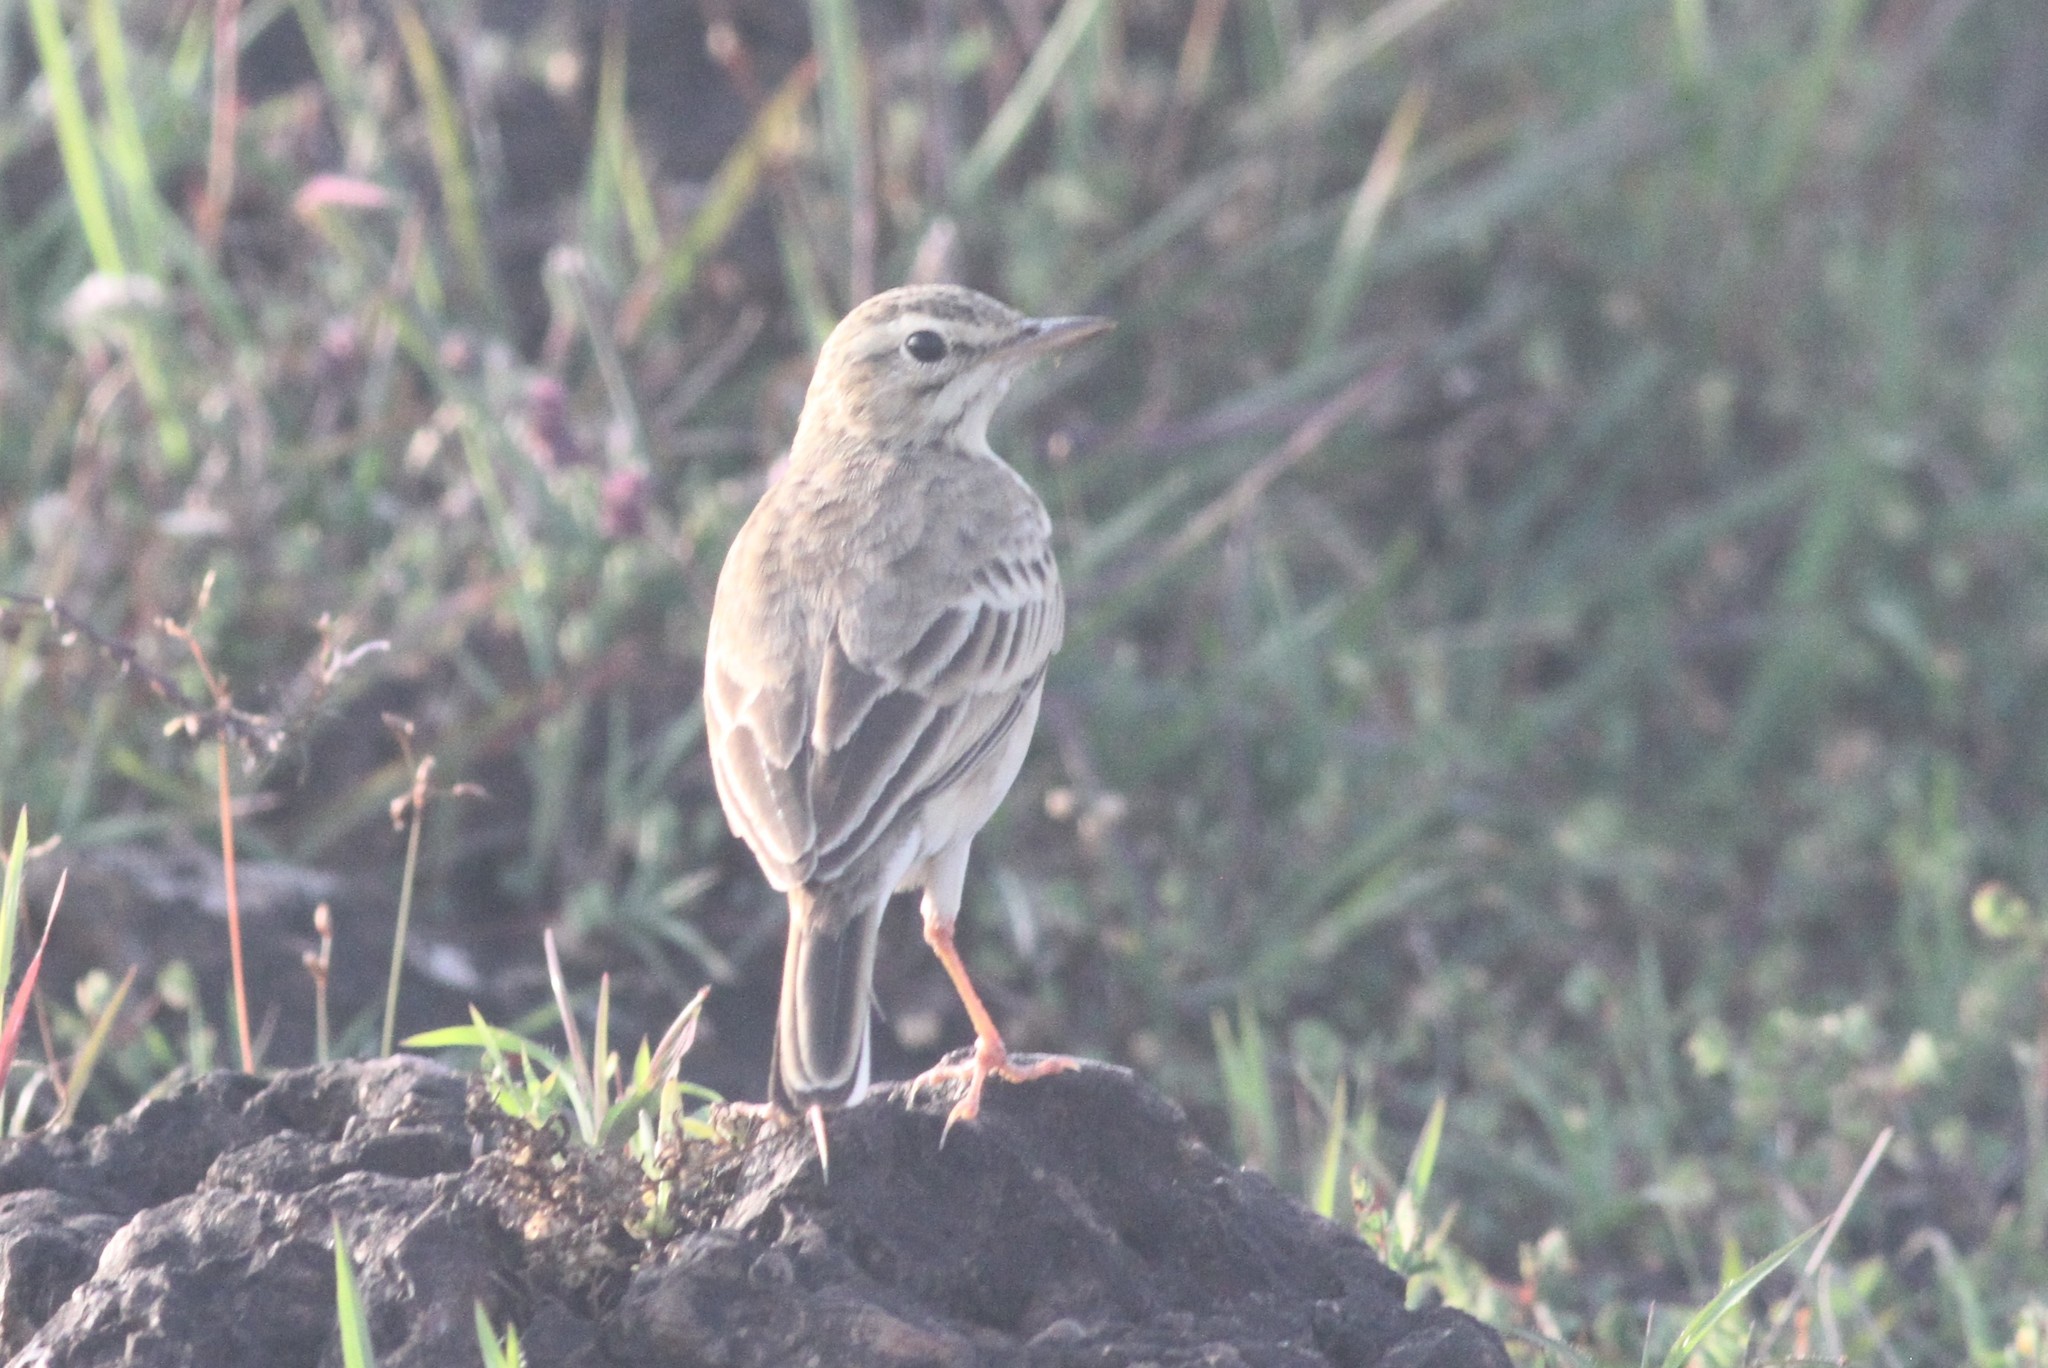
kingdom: Animalia
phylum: Chordata
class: Aves
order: Passeriformes
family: Motacillidae
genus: Anthus
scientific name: Anthus rufulus
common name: Paddyfield pipit
